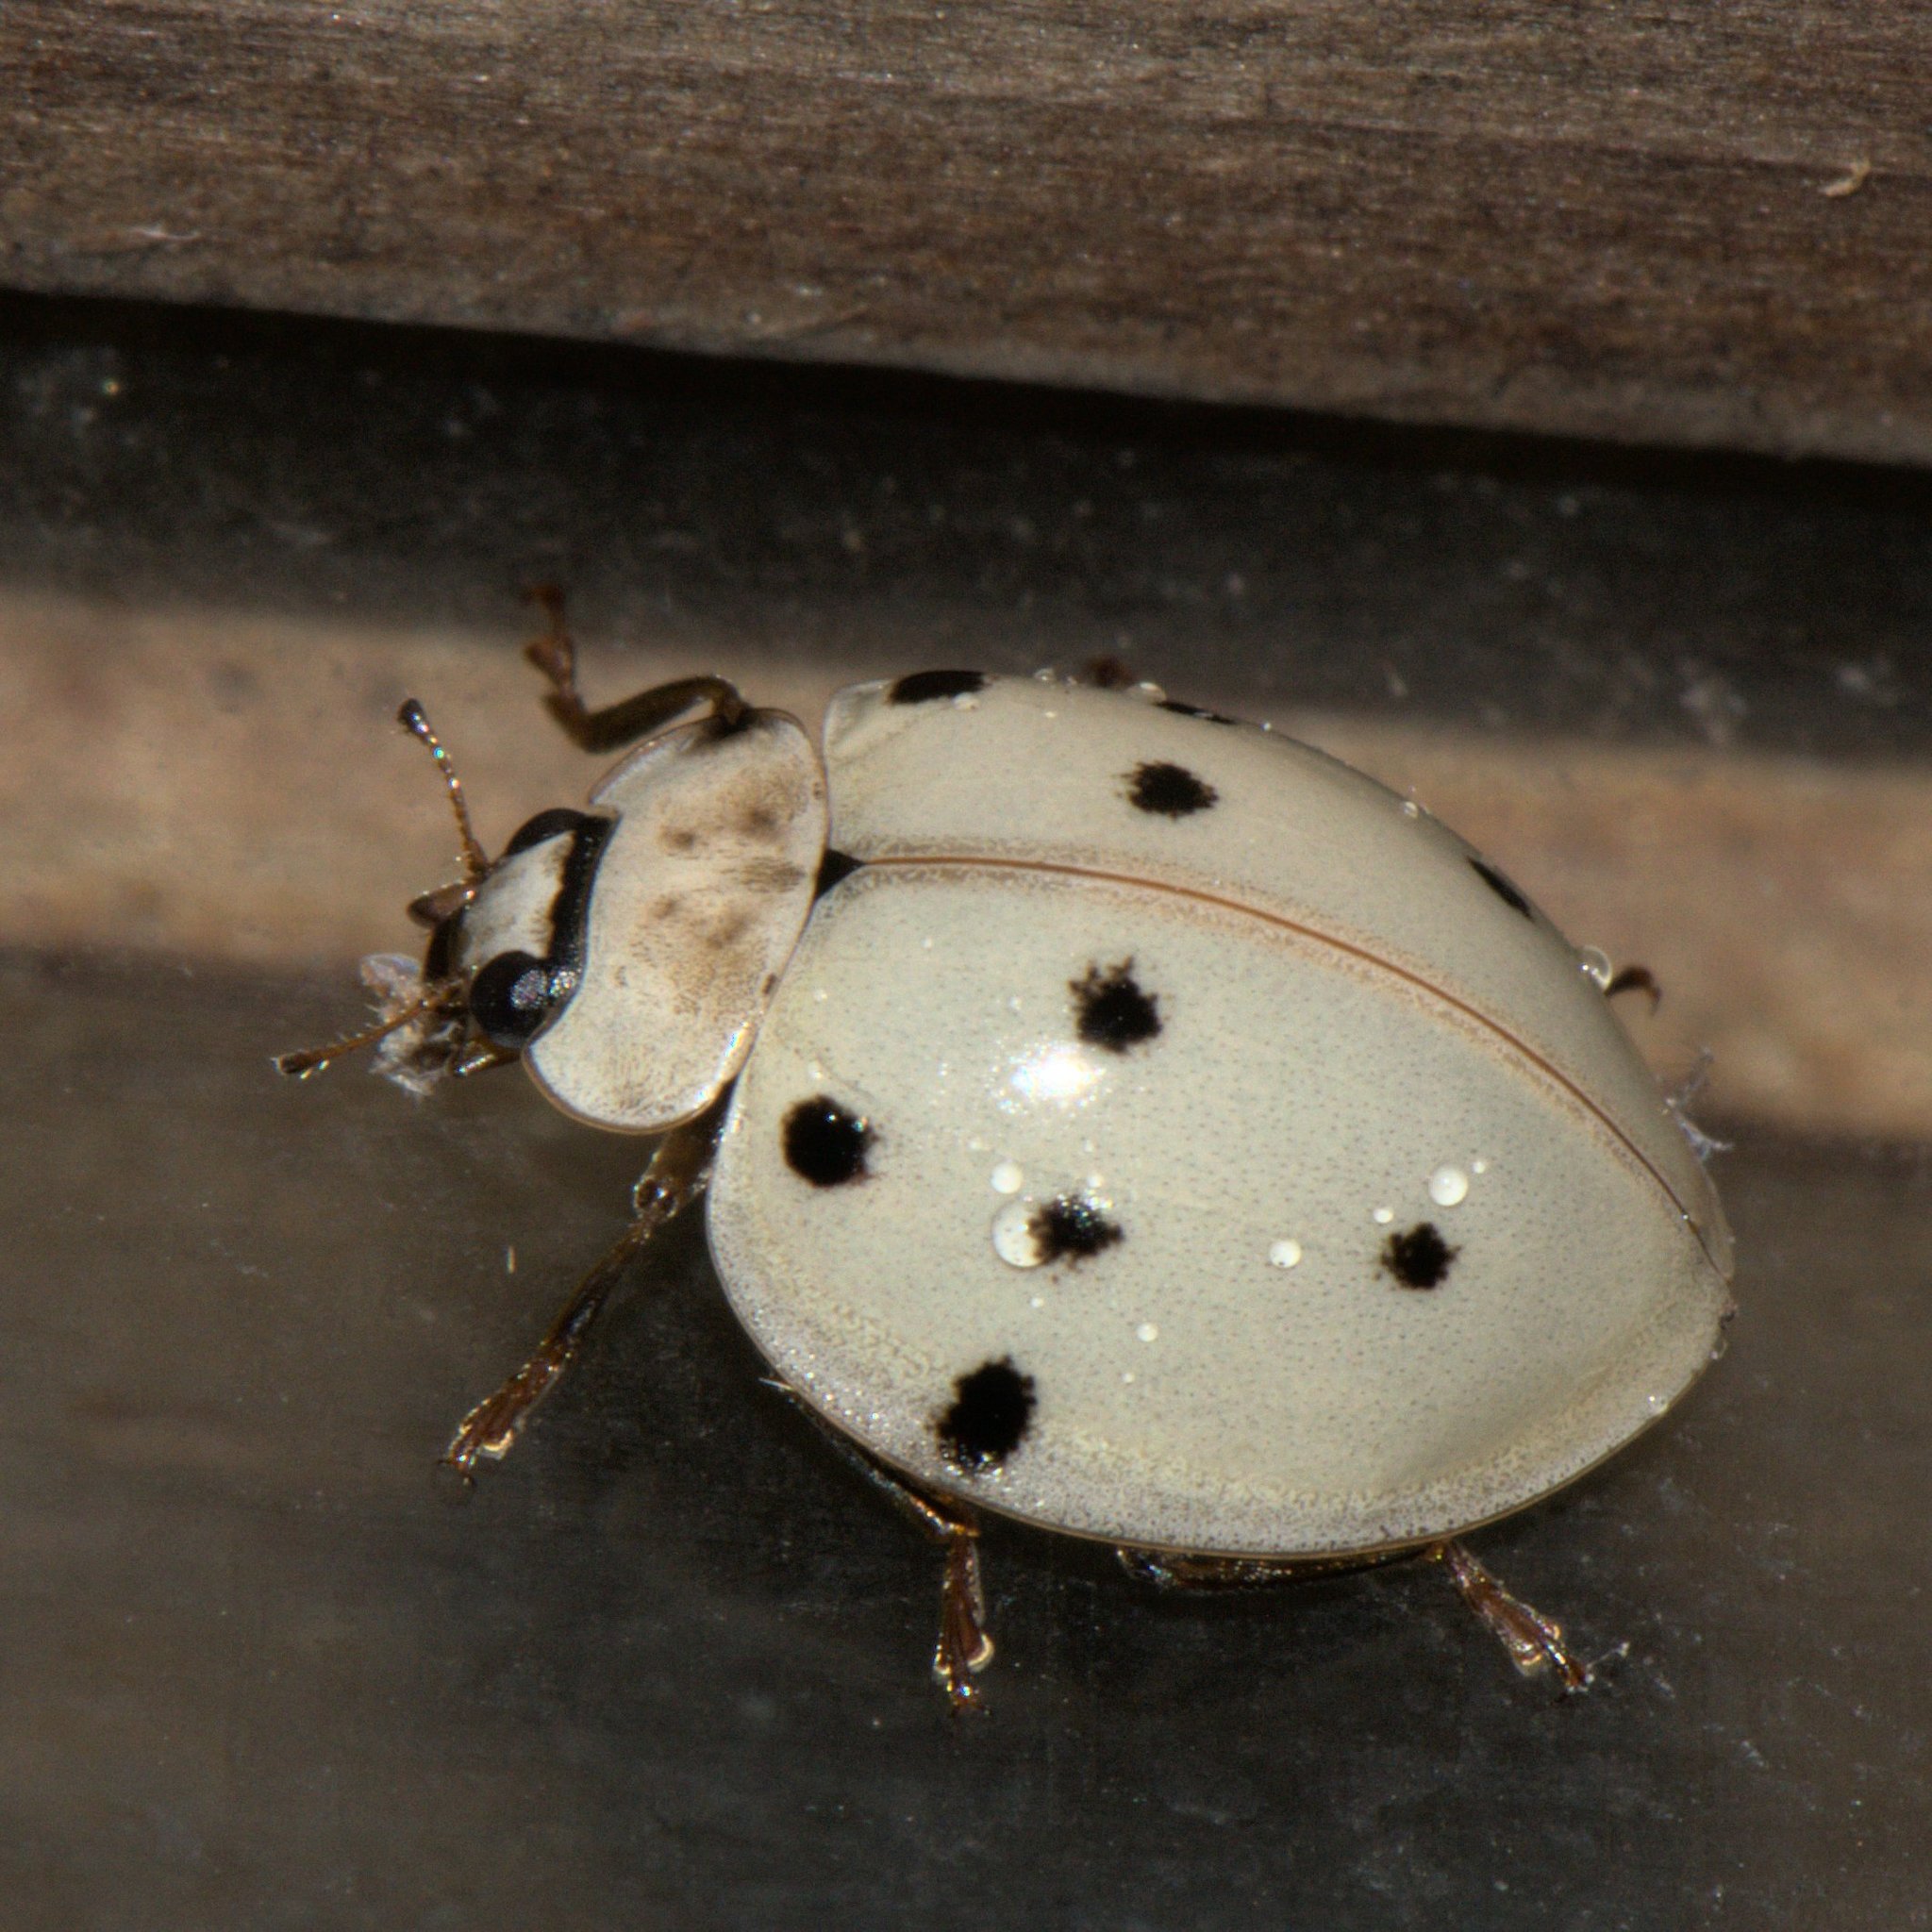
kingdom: Animalia
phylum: Arthropoda
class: Insecta
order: Coleoptera
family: Coccinellidae
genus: Harmonia
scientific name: Harmonia eucharis
